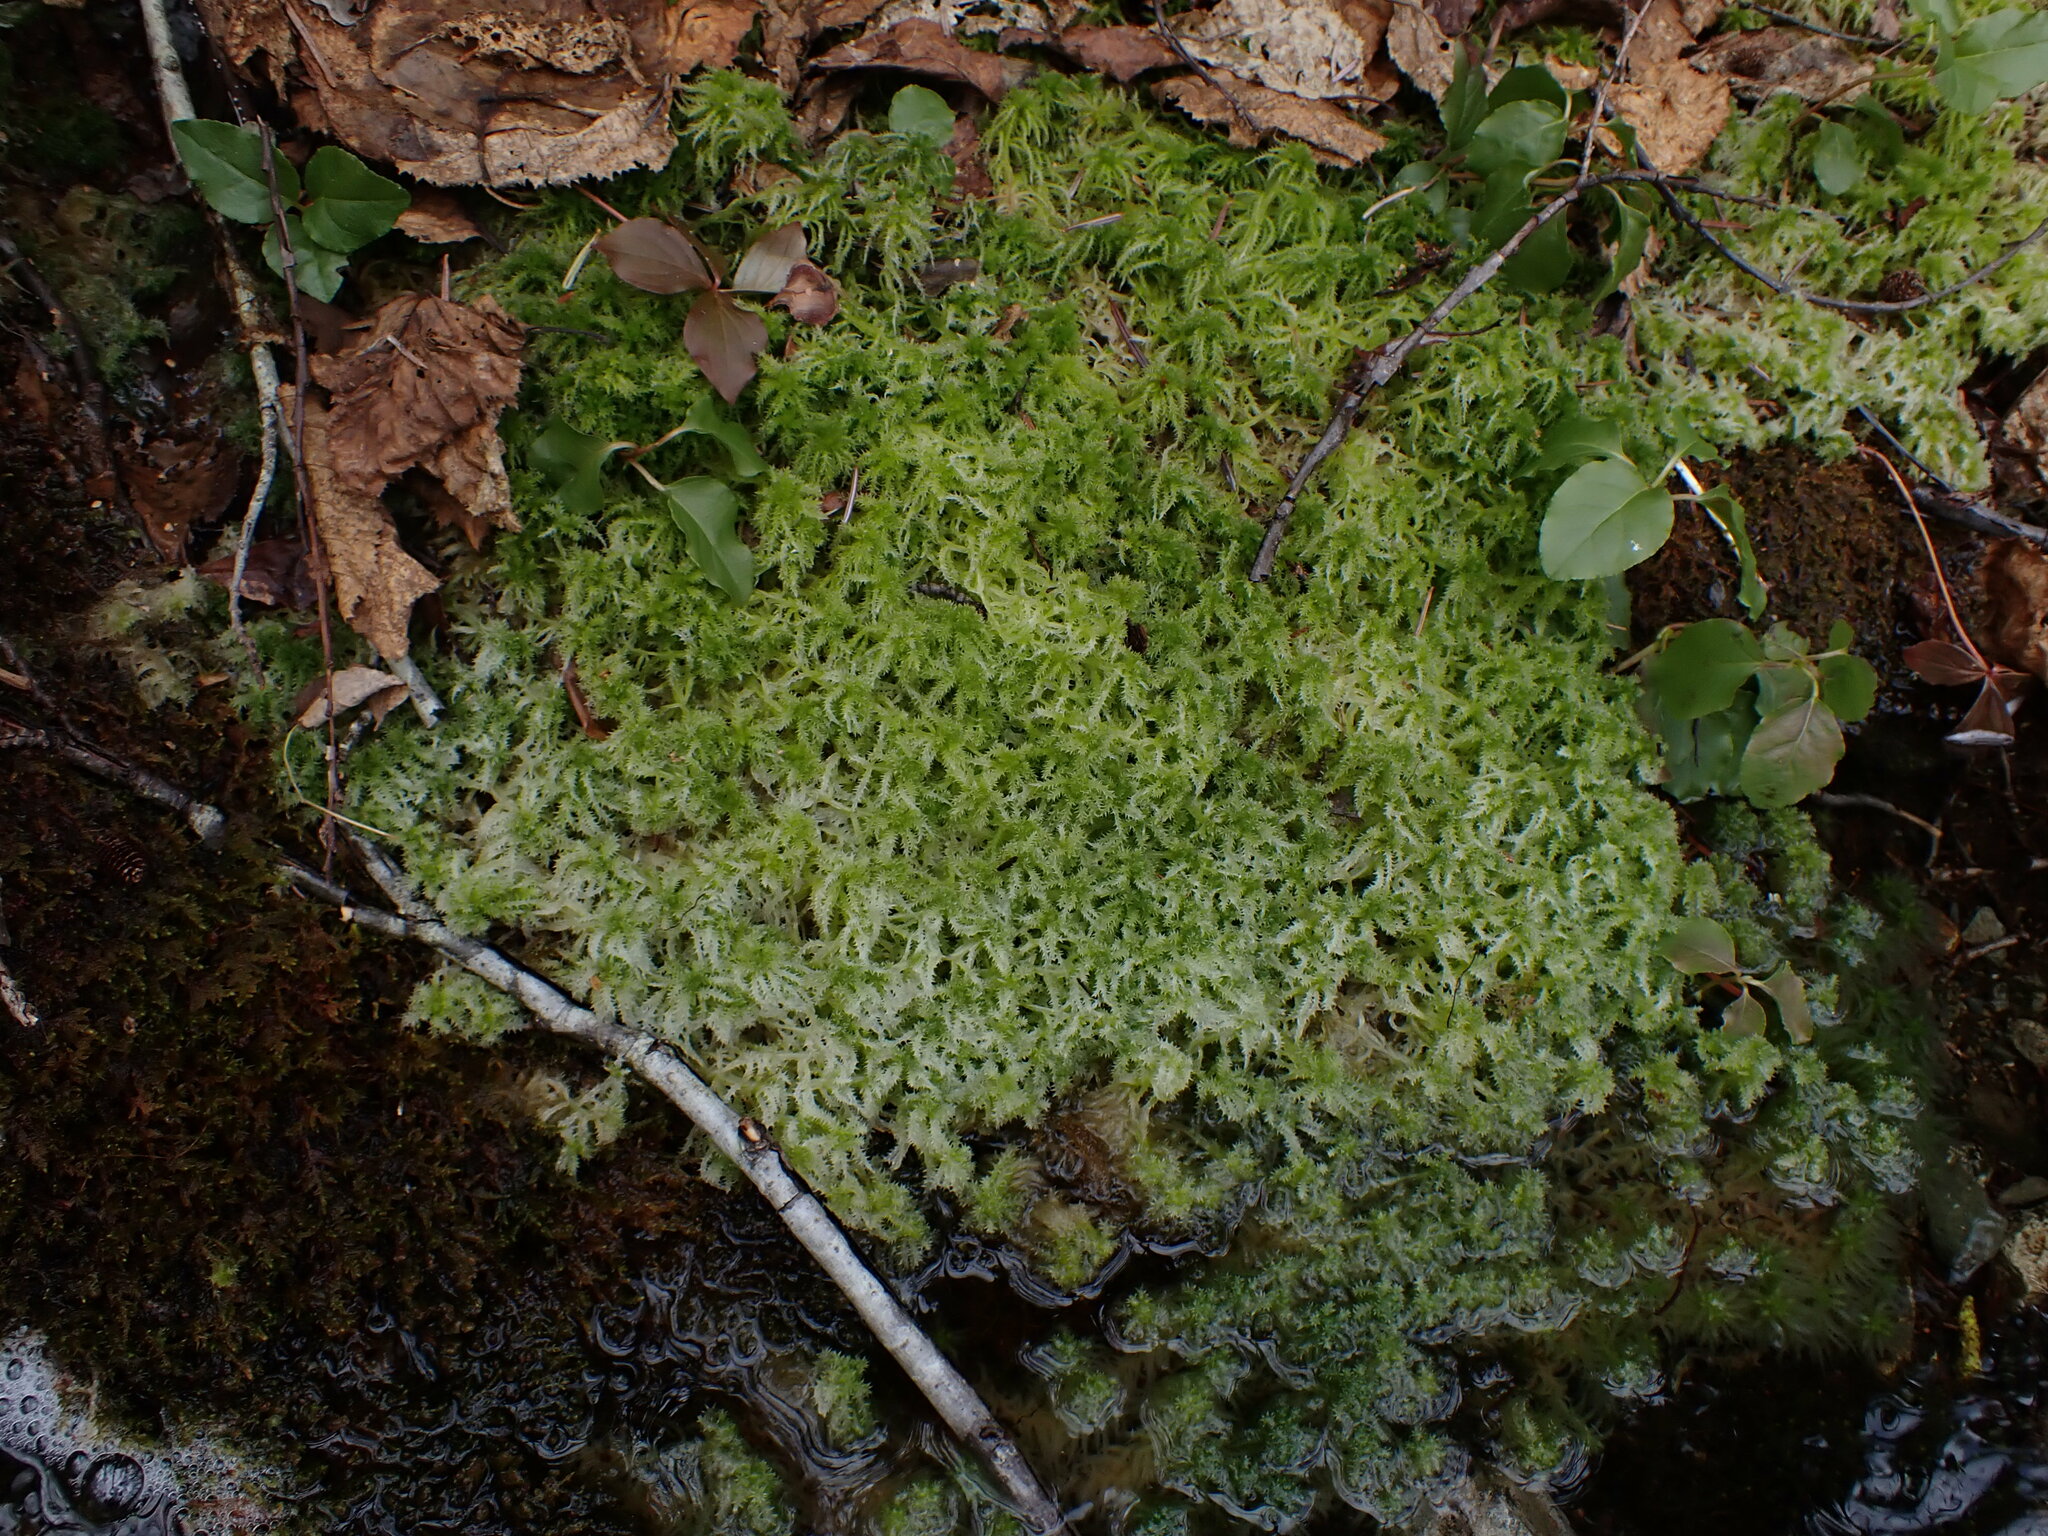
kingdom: Plantae
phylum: Bryophyta
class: Sphagnopsida
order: Sphagnales
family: Sphagnaceae
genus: Sphagnum
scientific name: Sphagnum squarrosum
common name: Shaggy peat moss
